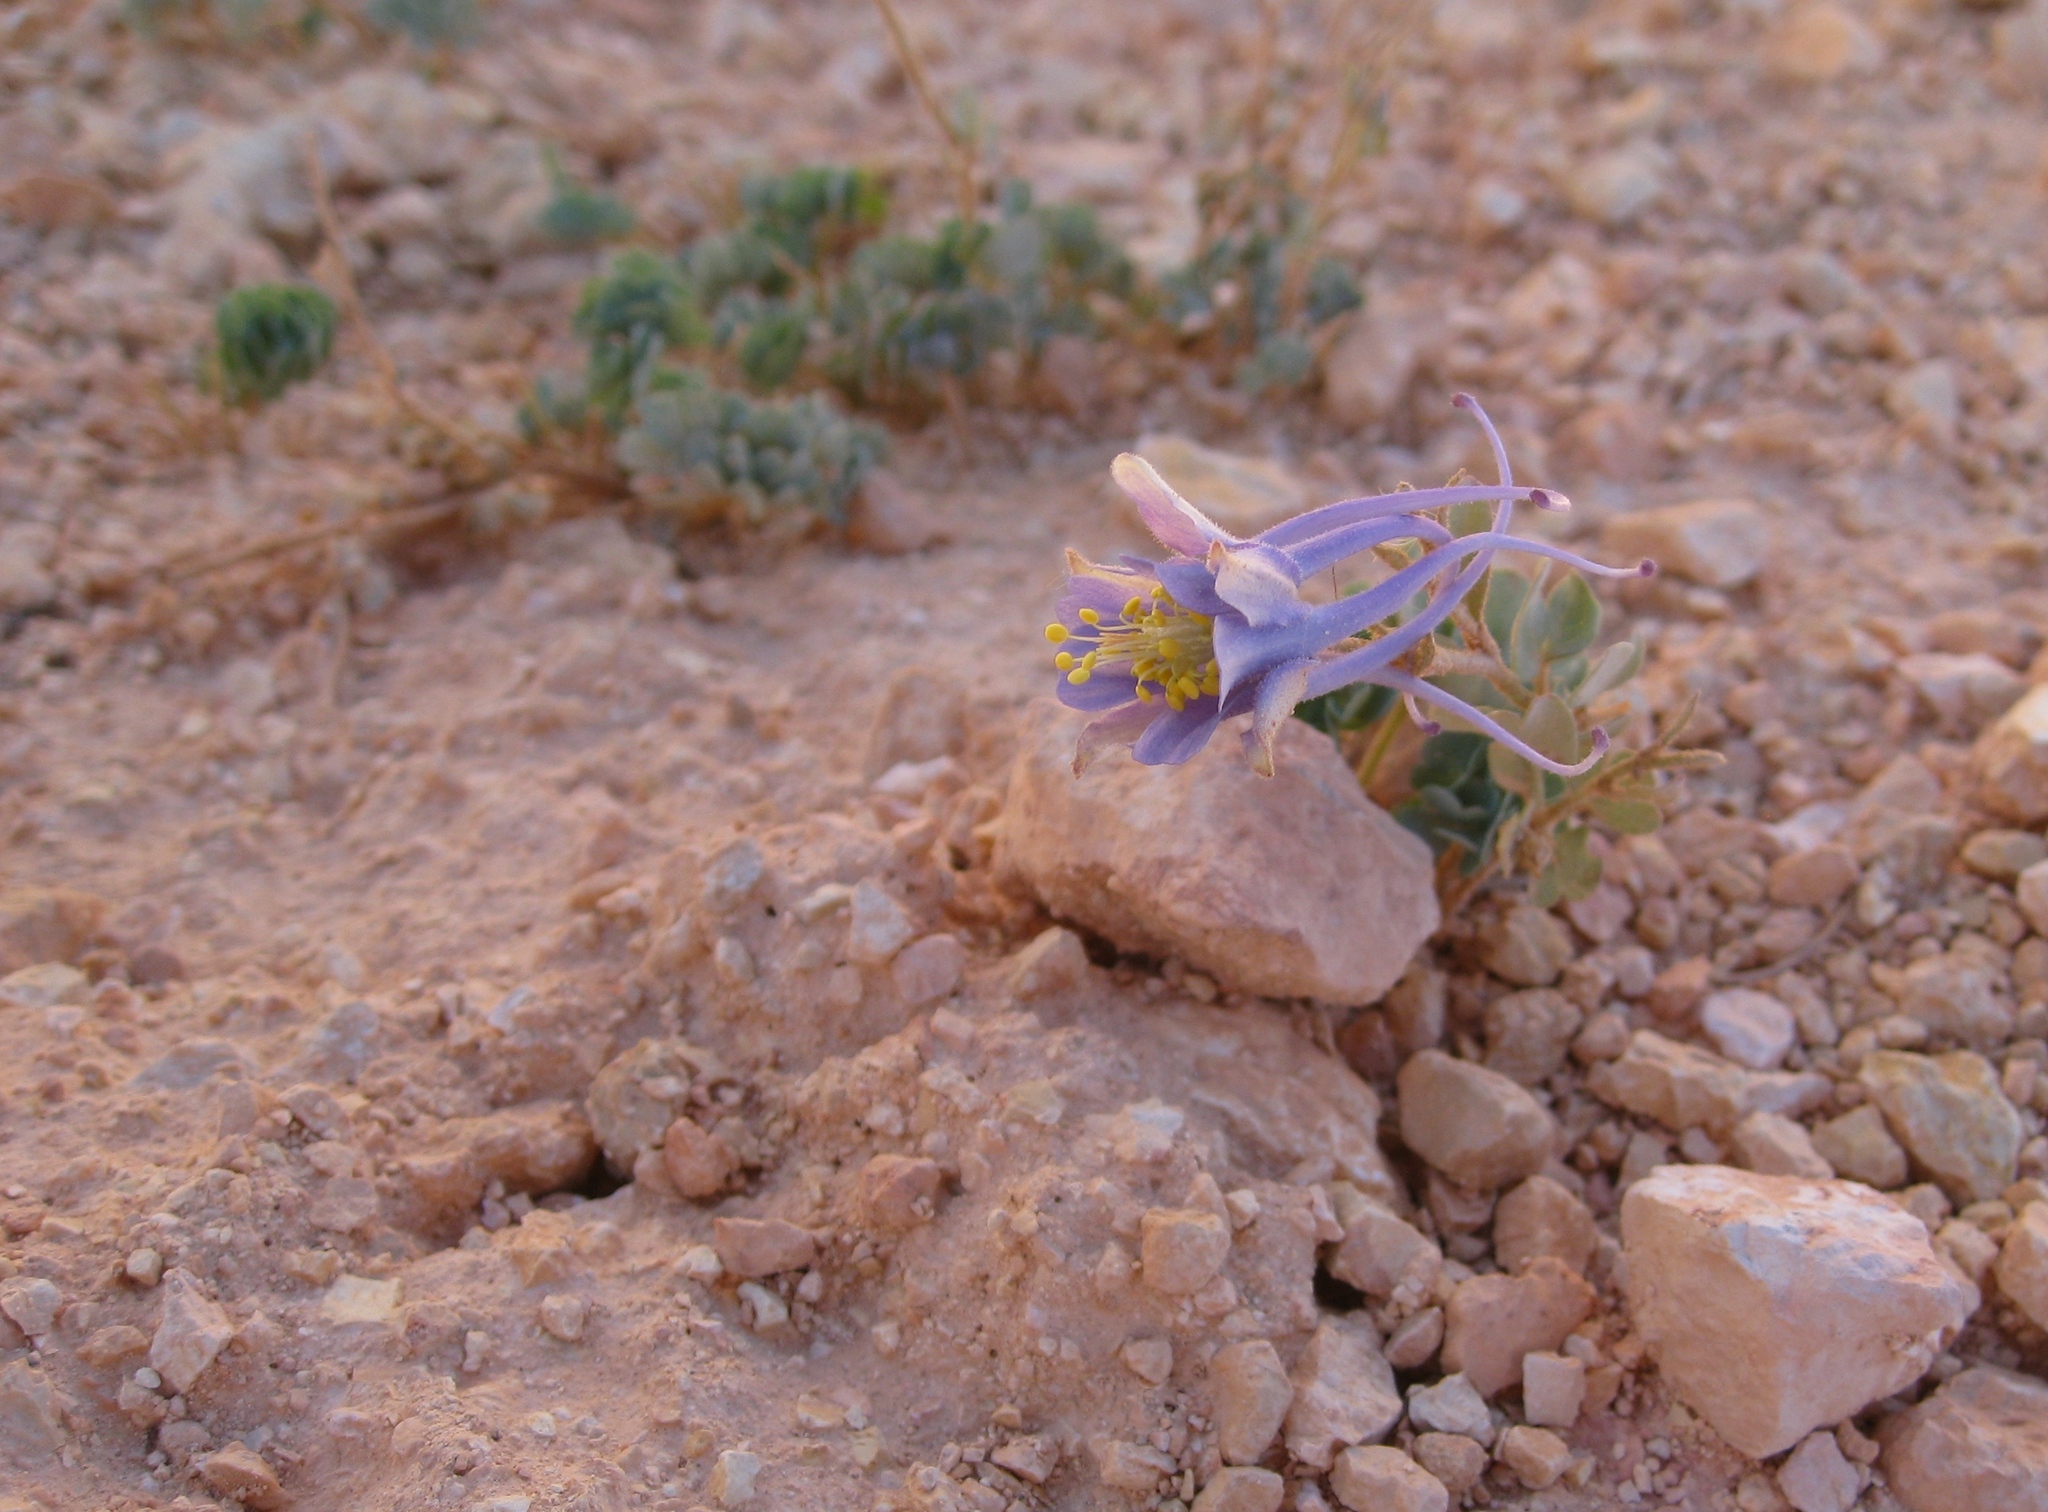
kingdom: Plantae
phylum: Tracheophyta
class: Magnoliopsida
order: Ranunculales
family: Ranunculaceae
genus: Aquilegia
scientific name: Aquilegia scopulorum
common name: Rock columbine
